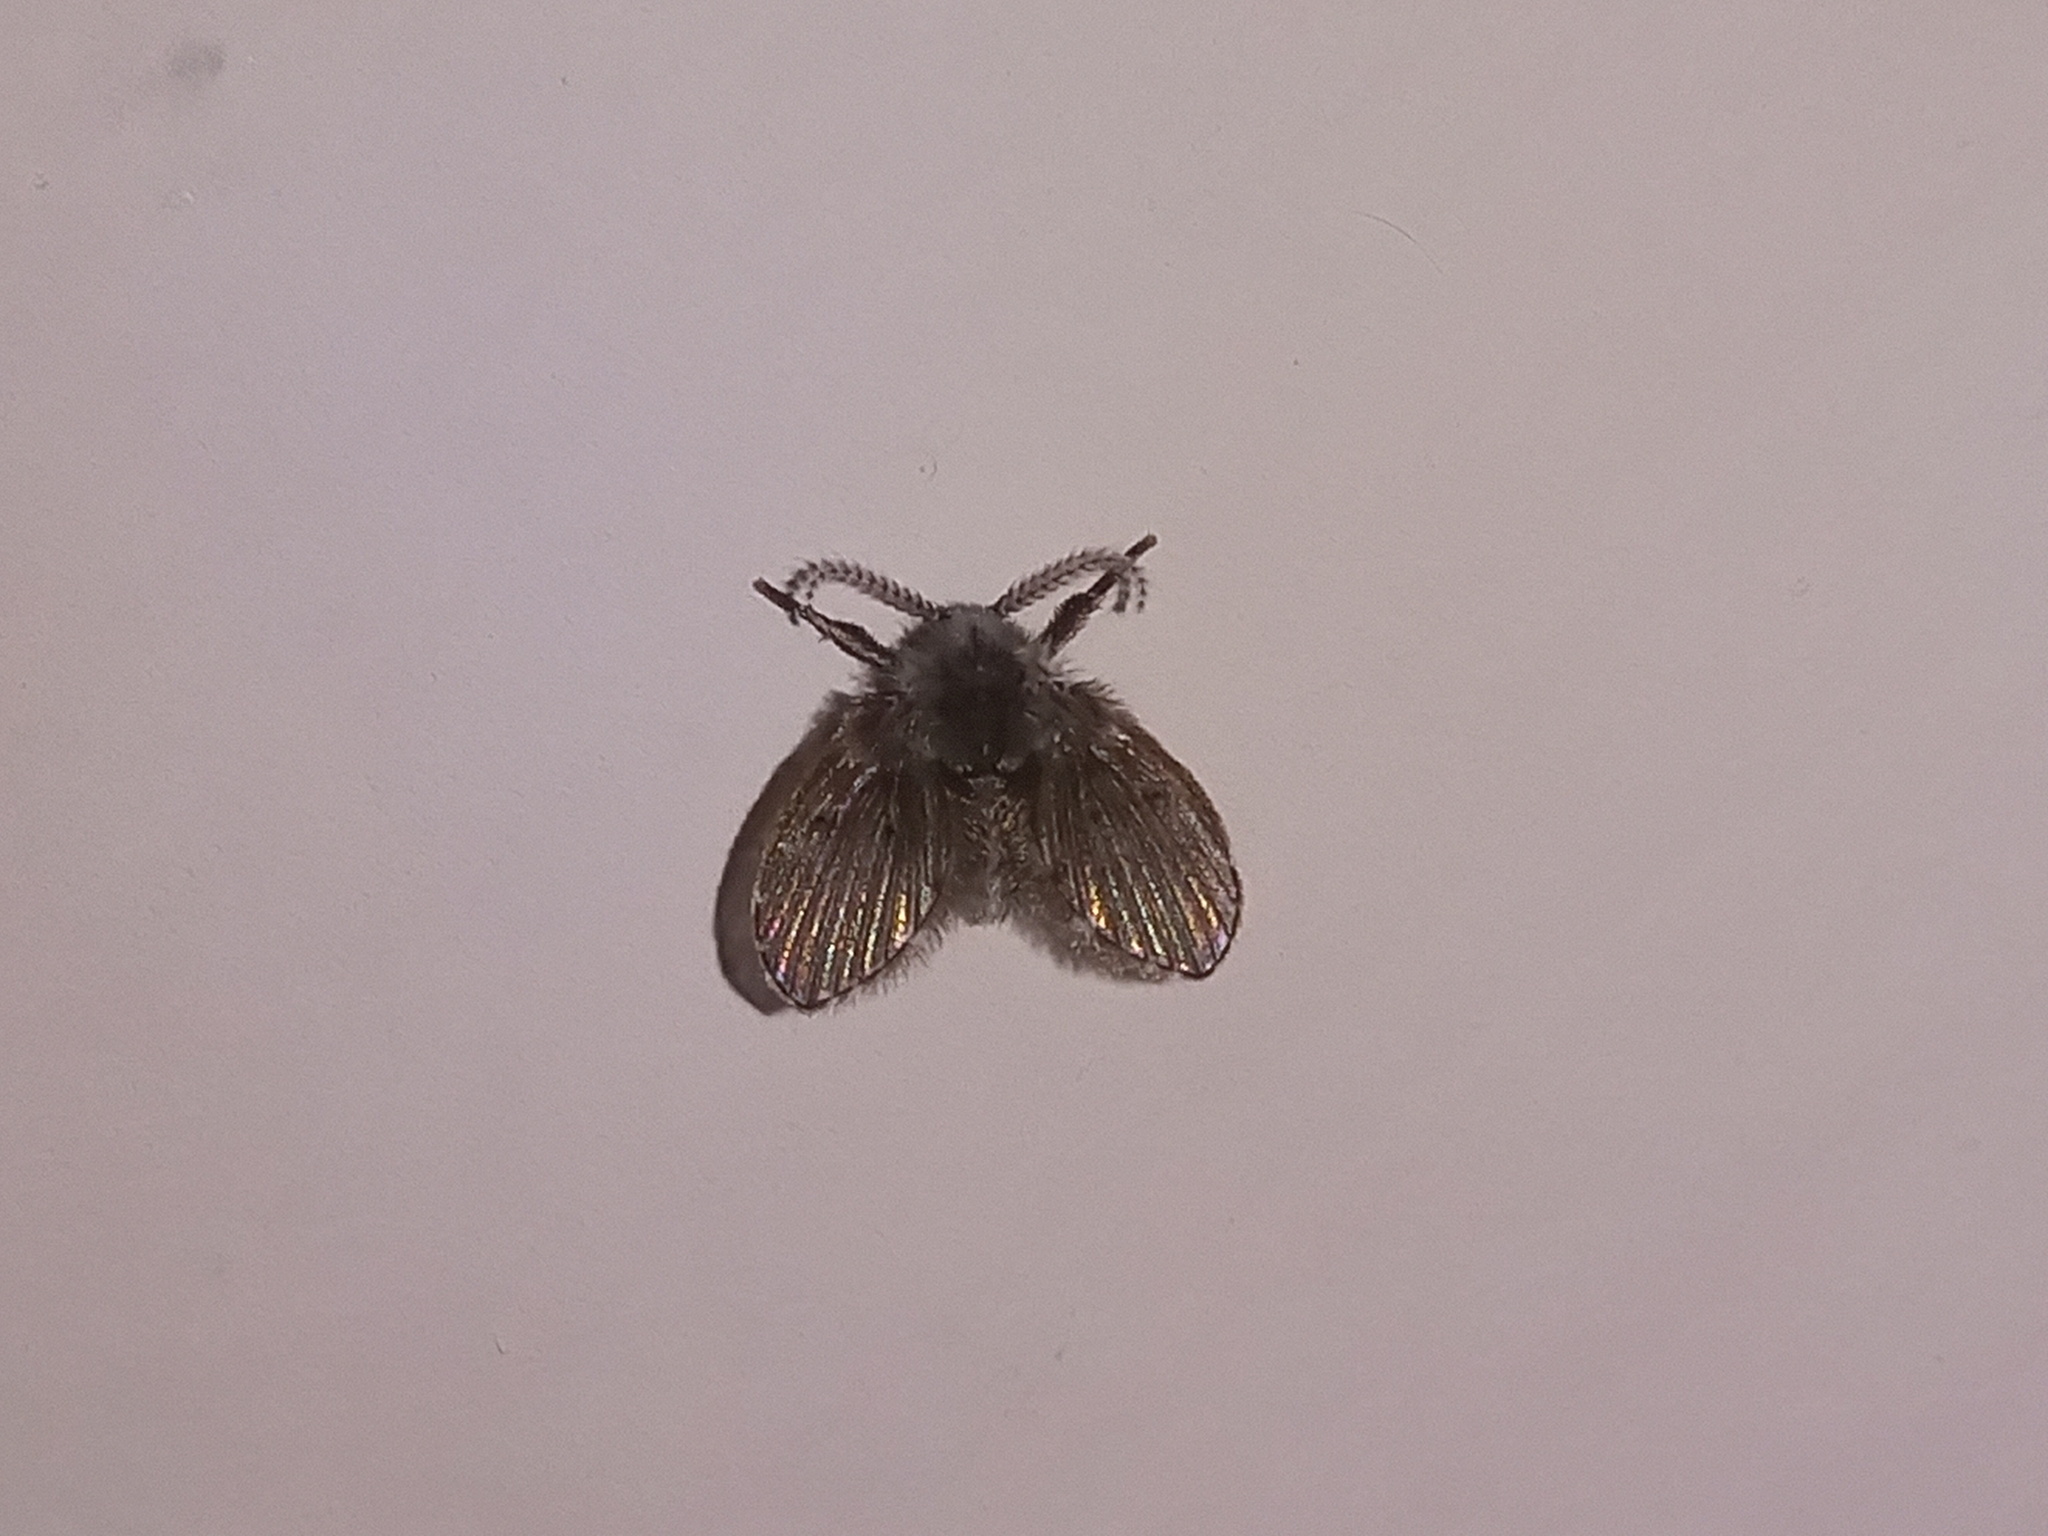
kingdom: Animalia
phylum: Arthropoda
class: Insecta
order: Diptera
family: Psychodidae
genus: Clogmia
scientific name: Clogmia albipunctatus
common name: White-spotted moth fly
